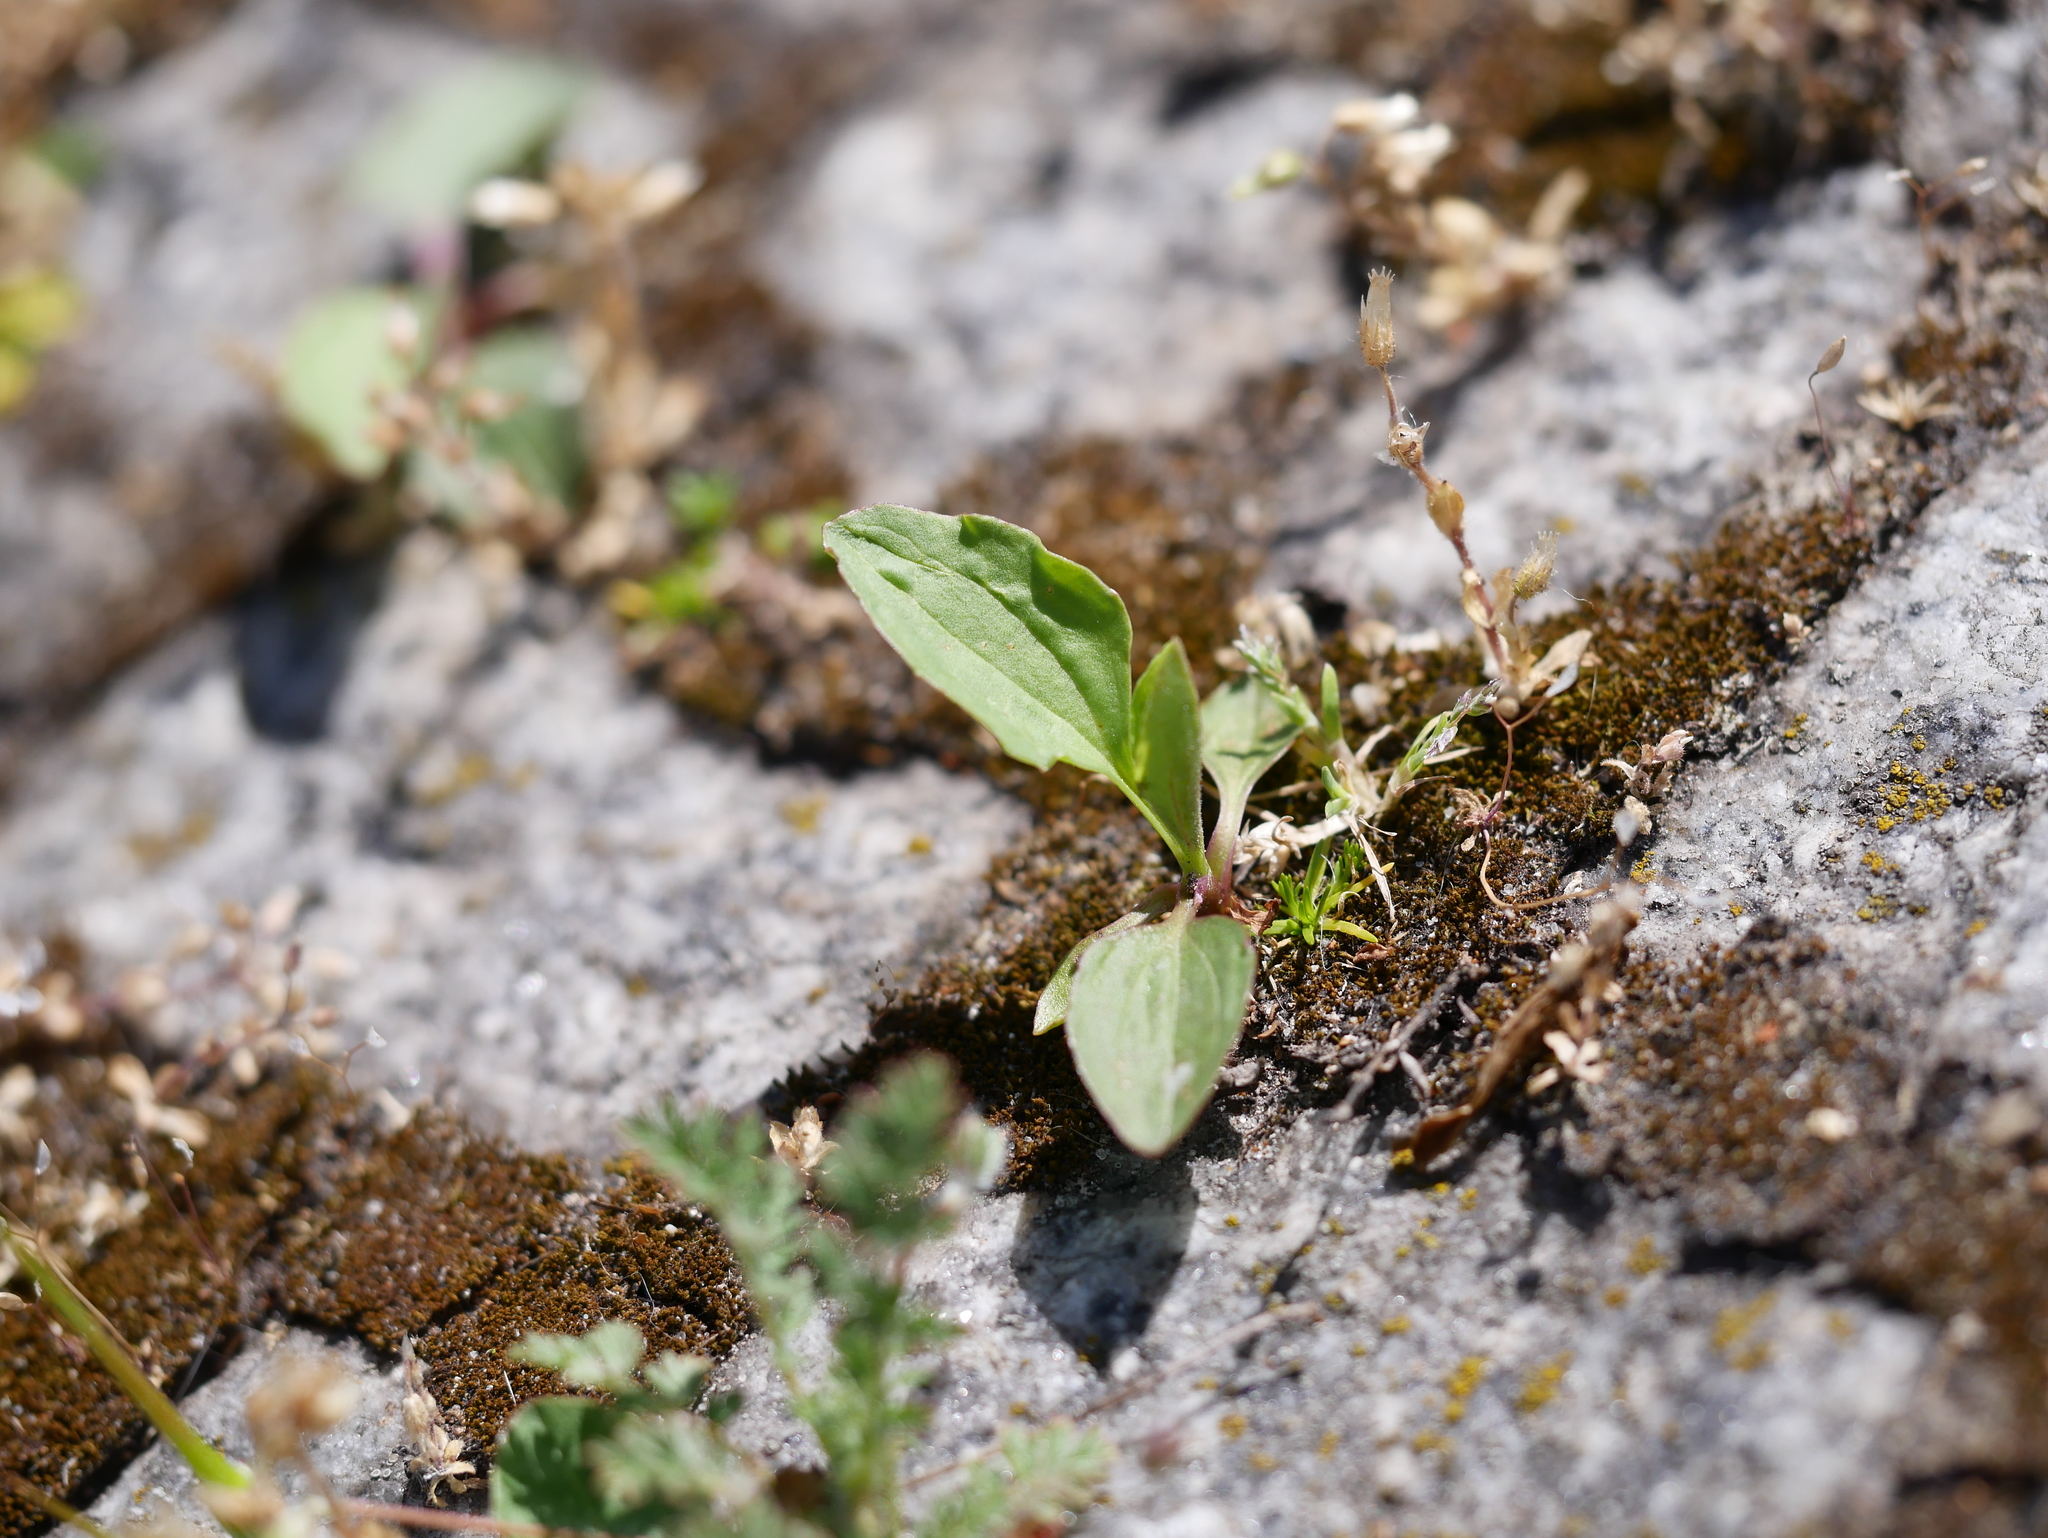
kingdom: Plantae
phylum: Tracheophyta
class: Magnoliopsida
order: Lamiales
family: Plantaginaceae
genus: Plantago
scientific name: Plantago major
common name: Common plantain
